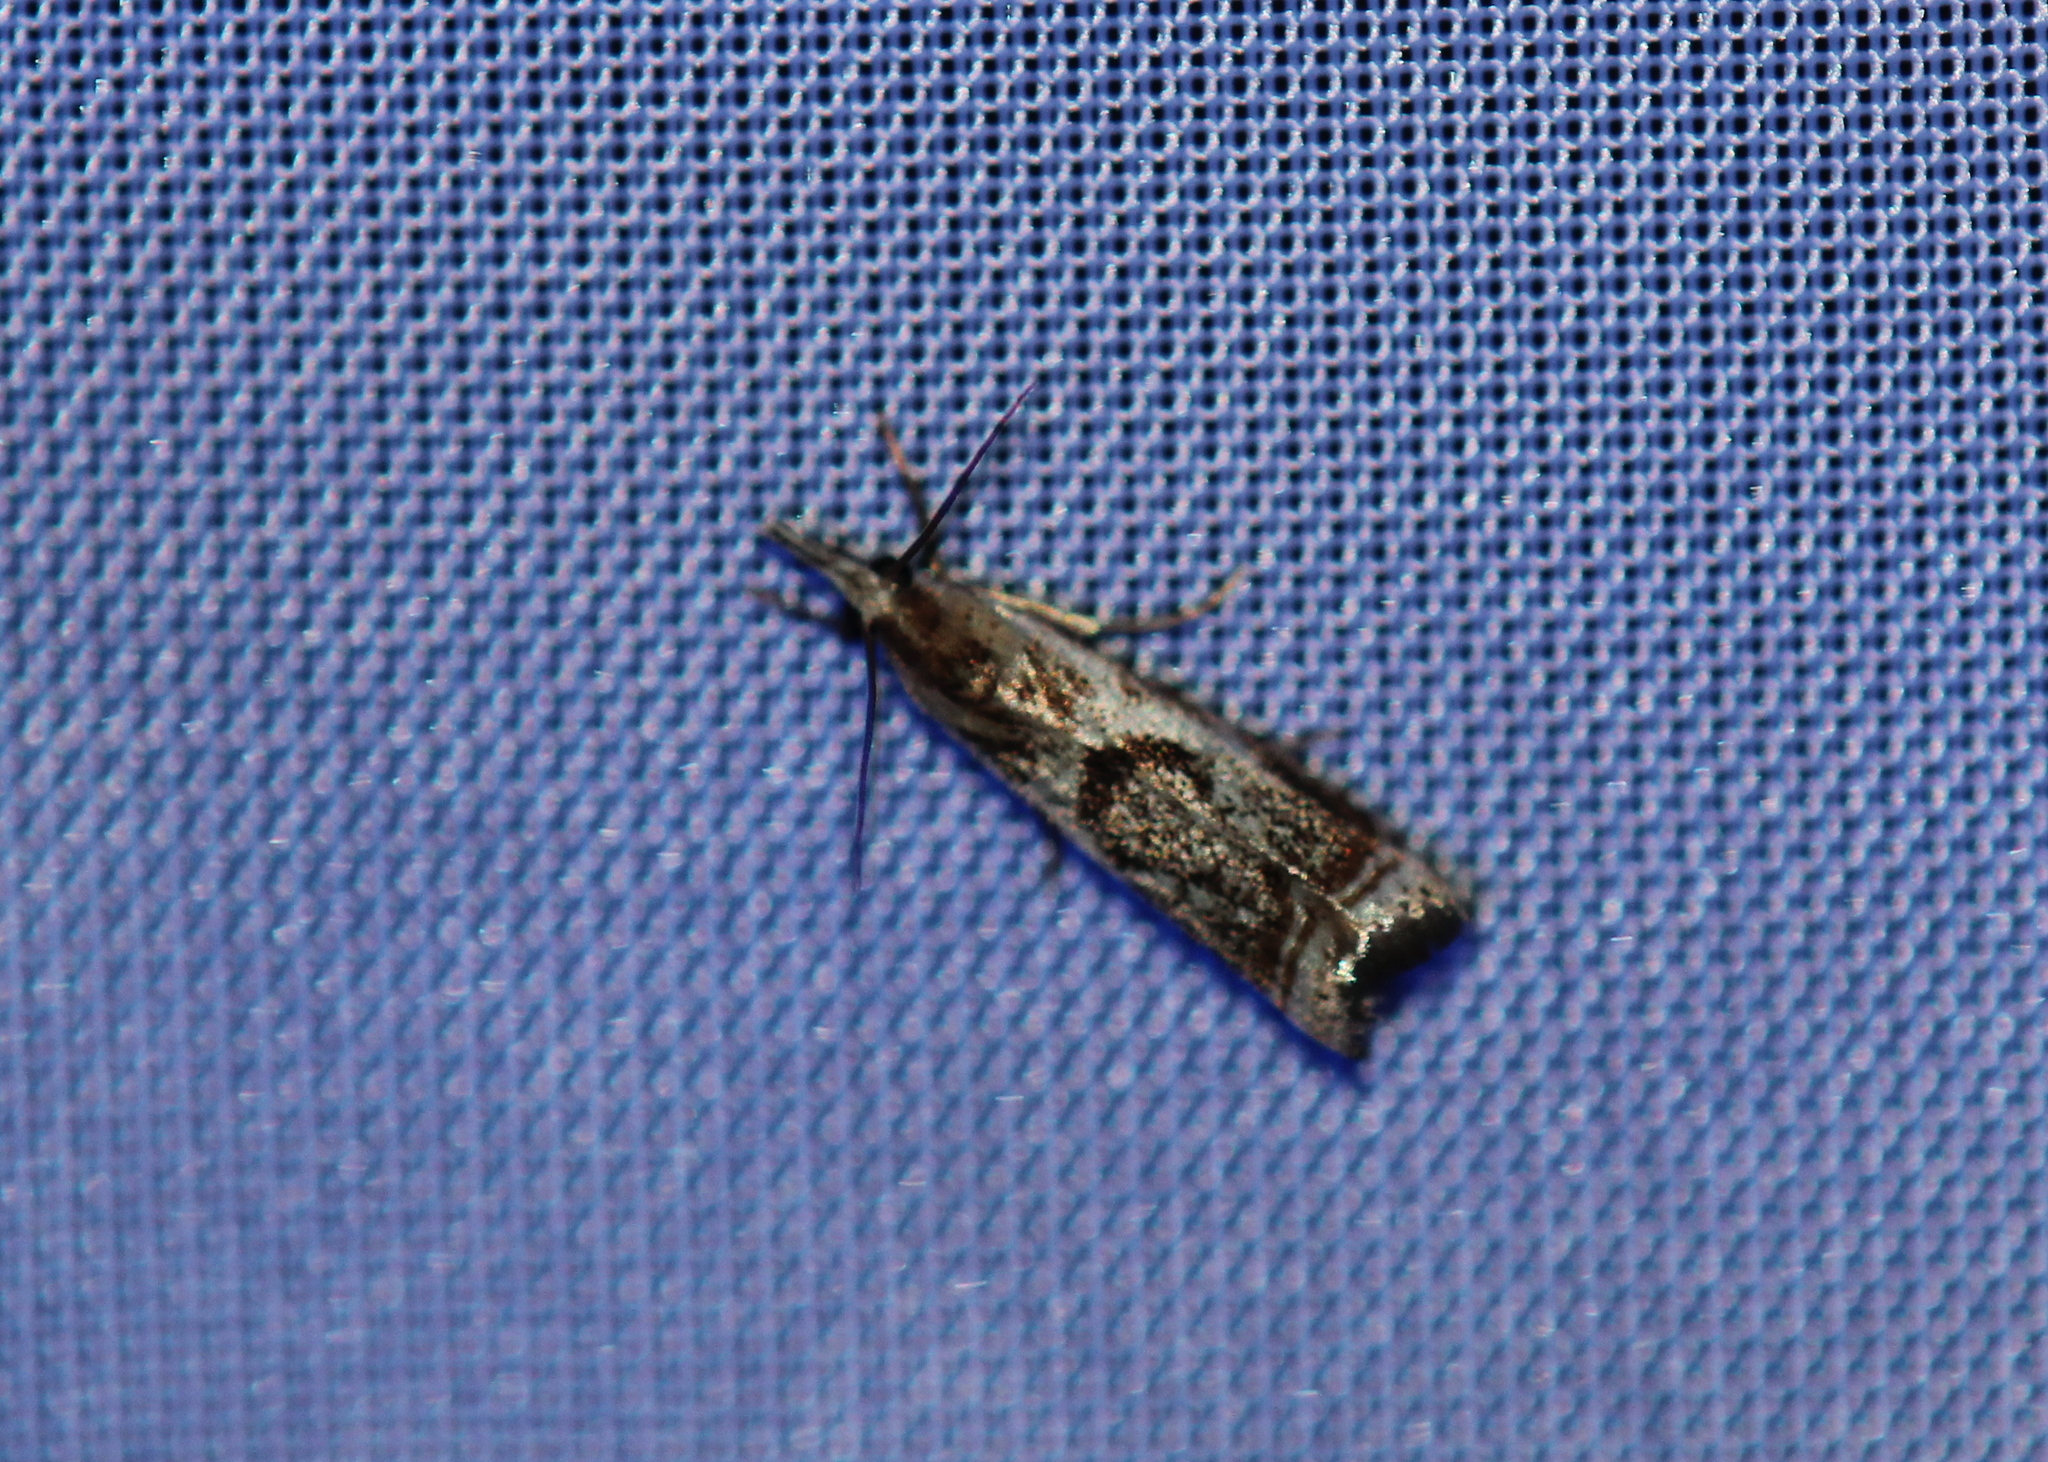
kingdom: Animalia
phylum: Arthropoda
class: Insecta
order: Lepidoptera
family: Crambidae
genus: Microcrambus
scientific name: Microcrambus elegans
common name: Elegant grass-veneer
